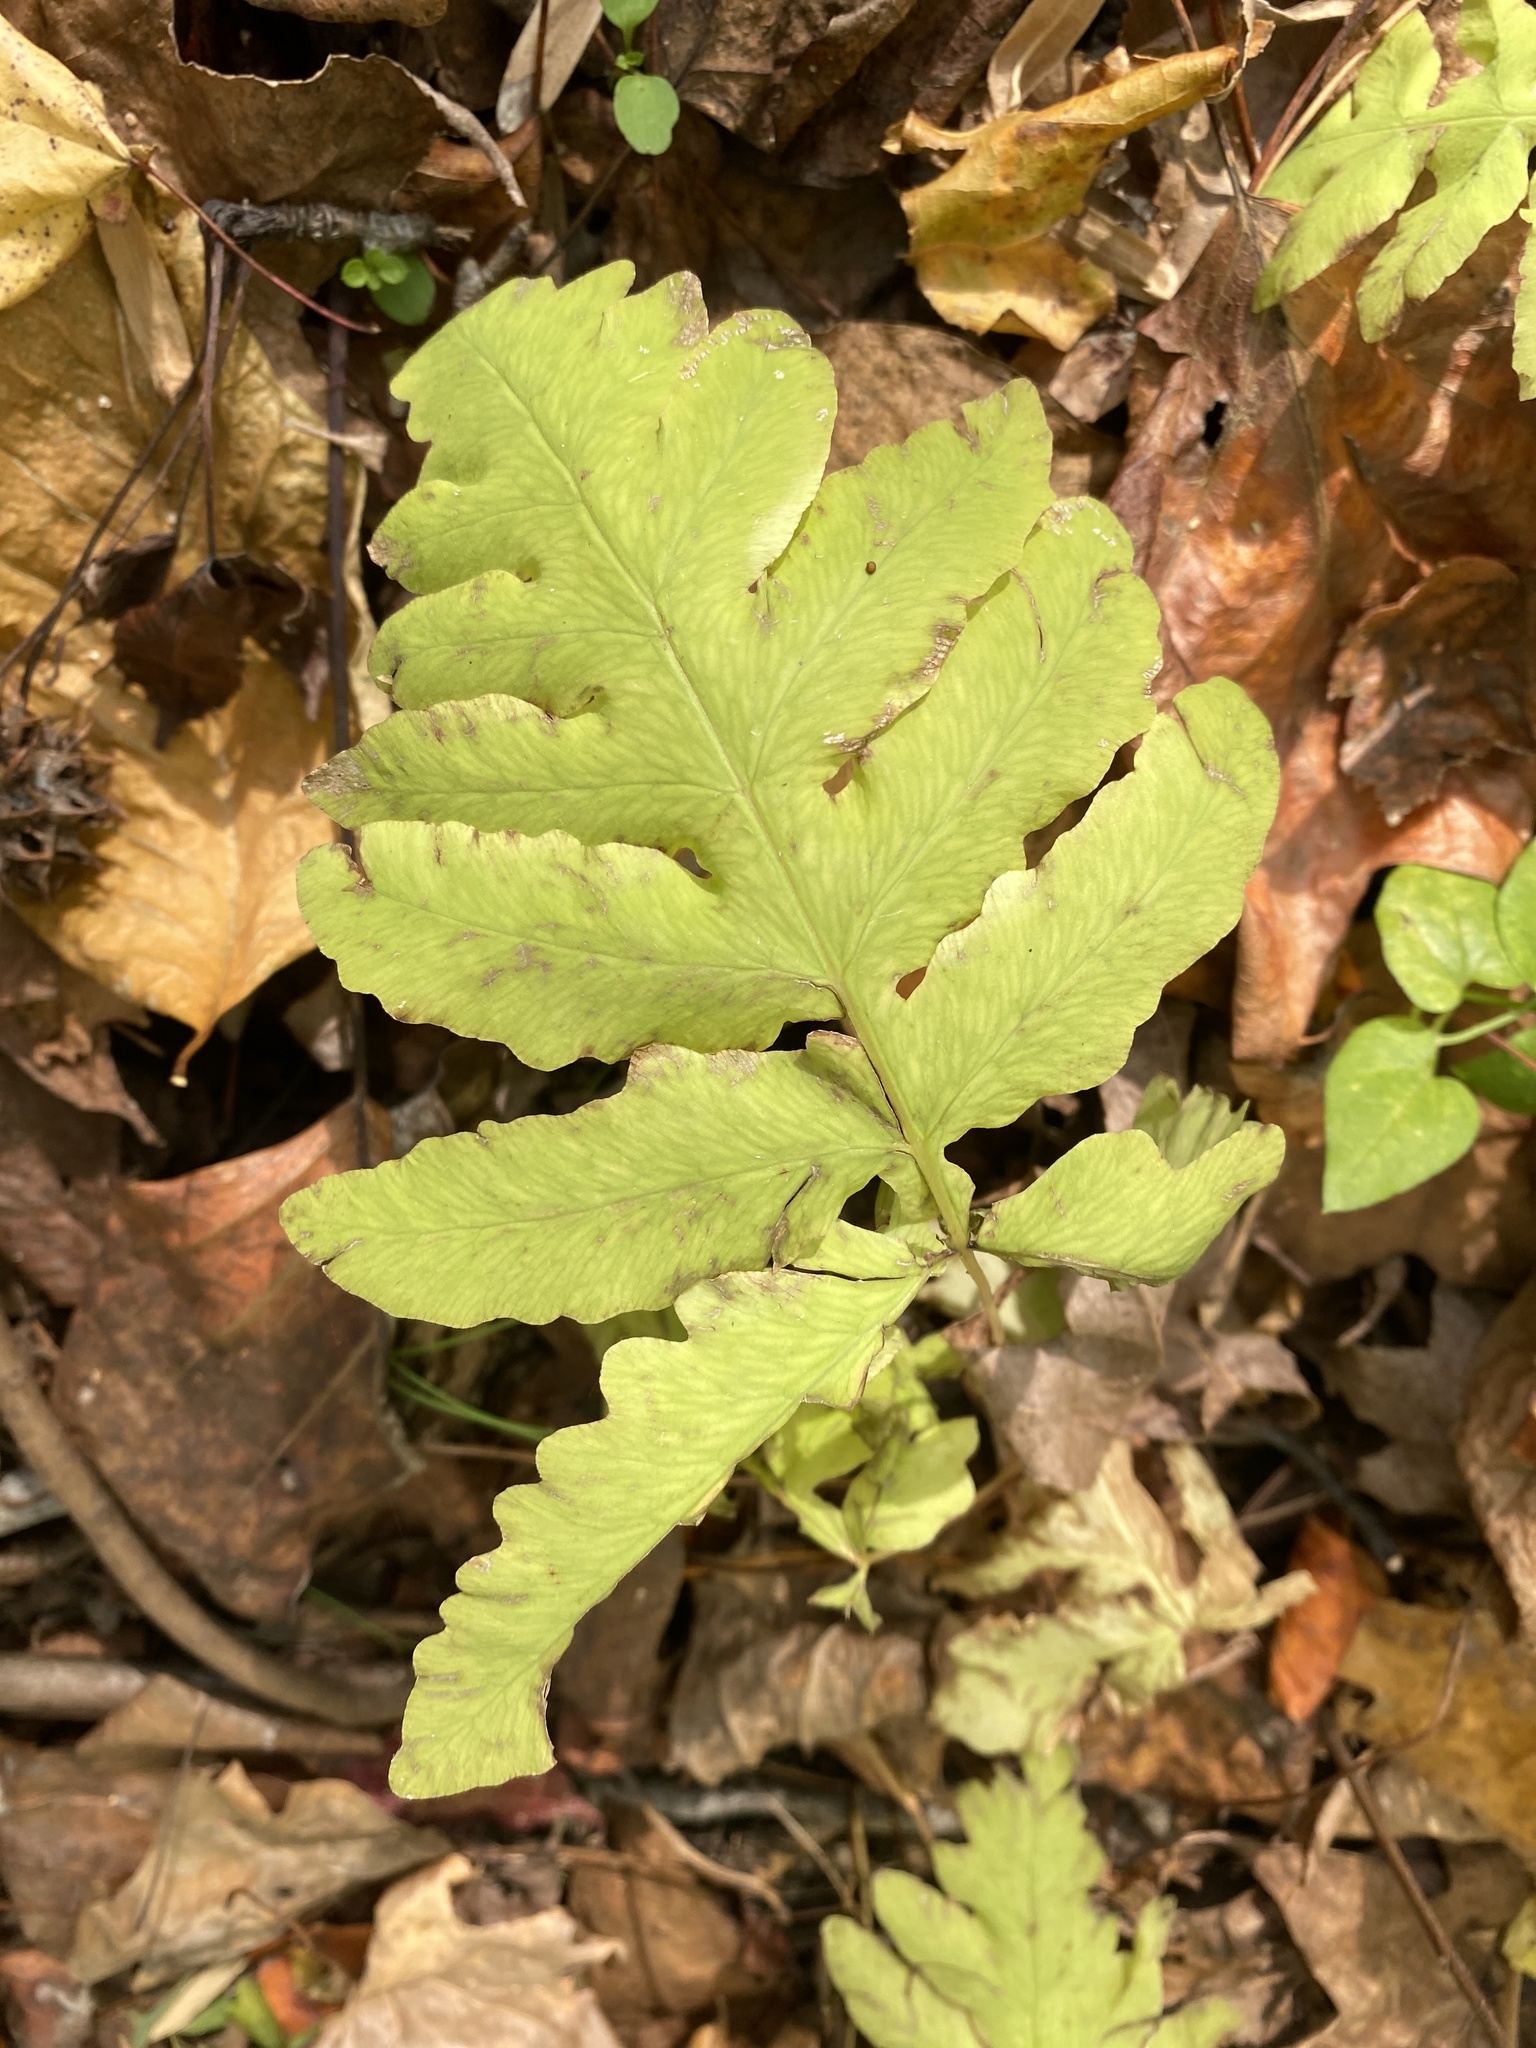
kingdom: Plantae
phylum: Tracheophyta
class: Polypodiopsida
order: Polypodiales
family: Onocleaceae
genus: Onoclea
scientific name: Onoclea sensibilis
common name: Sensitive fern
